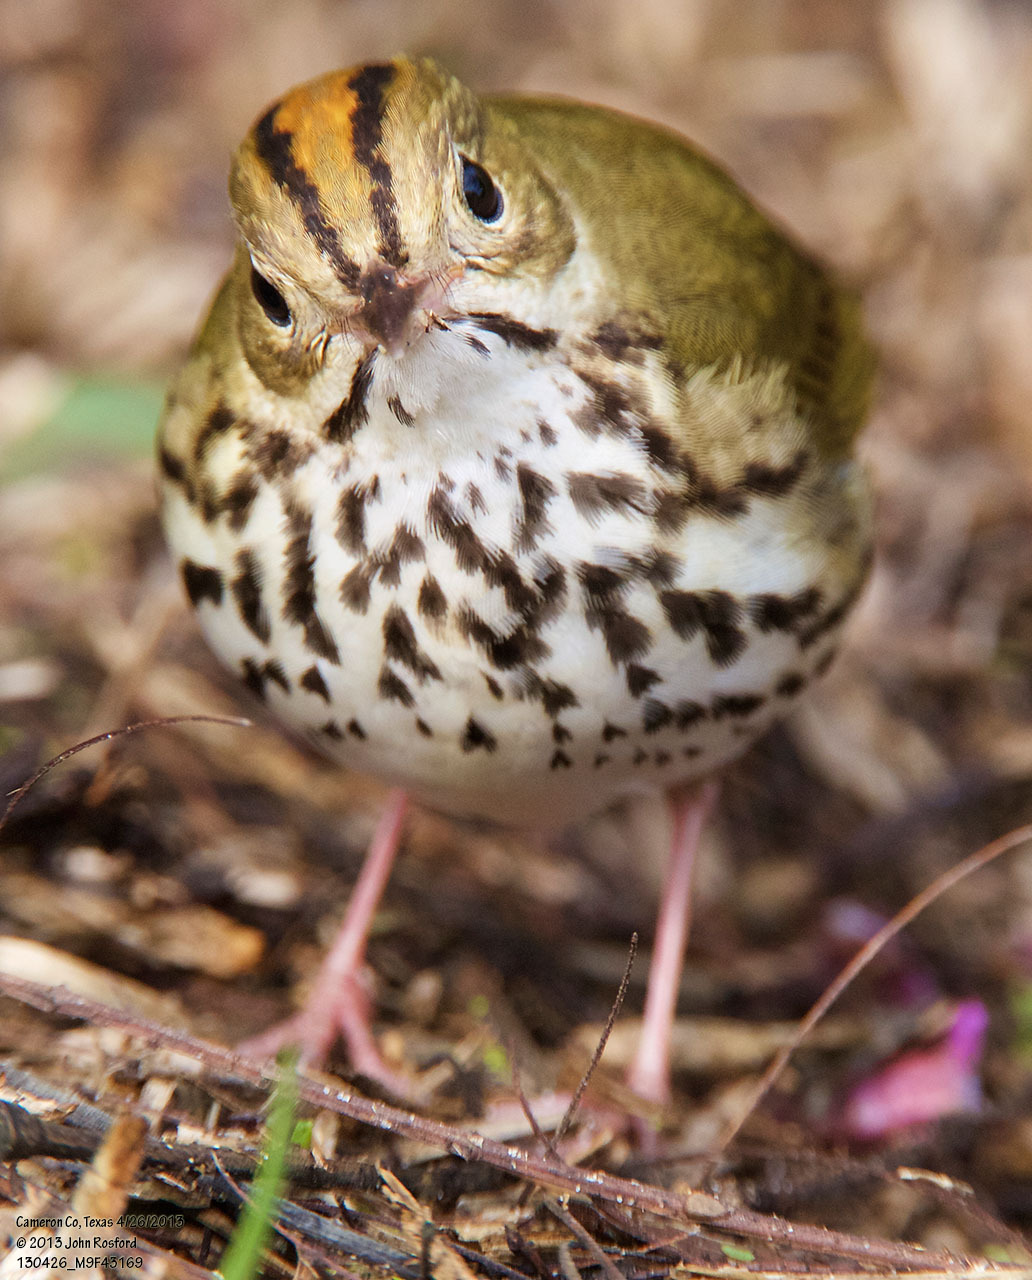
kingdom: Animalia
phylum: Chordata
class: Aves
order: Passeriformes
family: Parulidae
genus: Seiurus
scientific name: Seiurus aurocapilla
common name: Ovenbird
